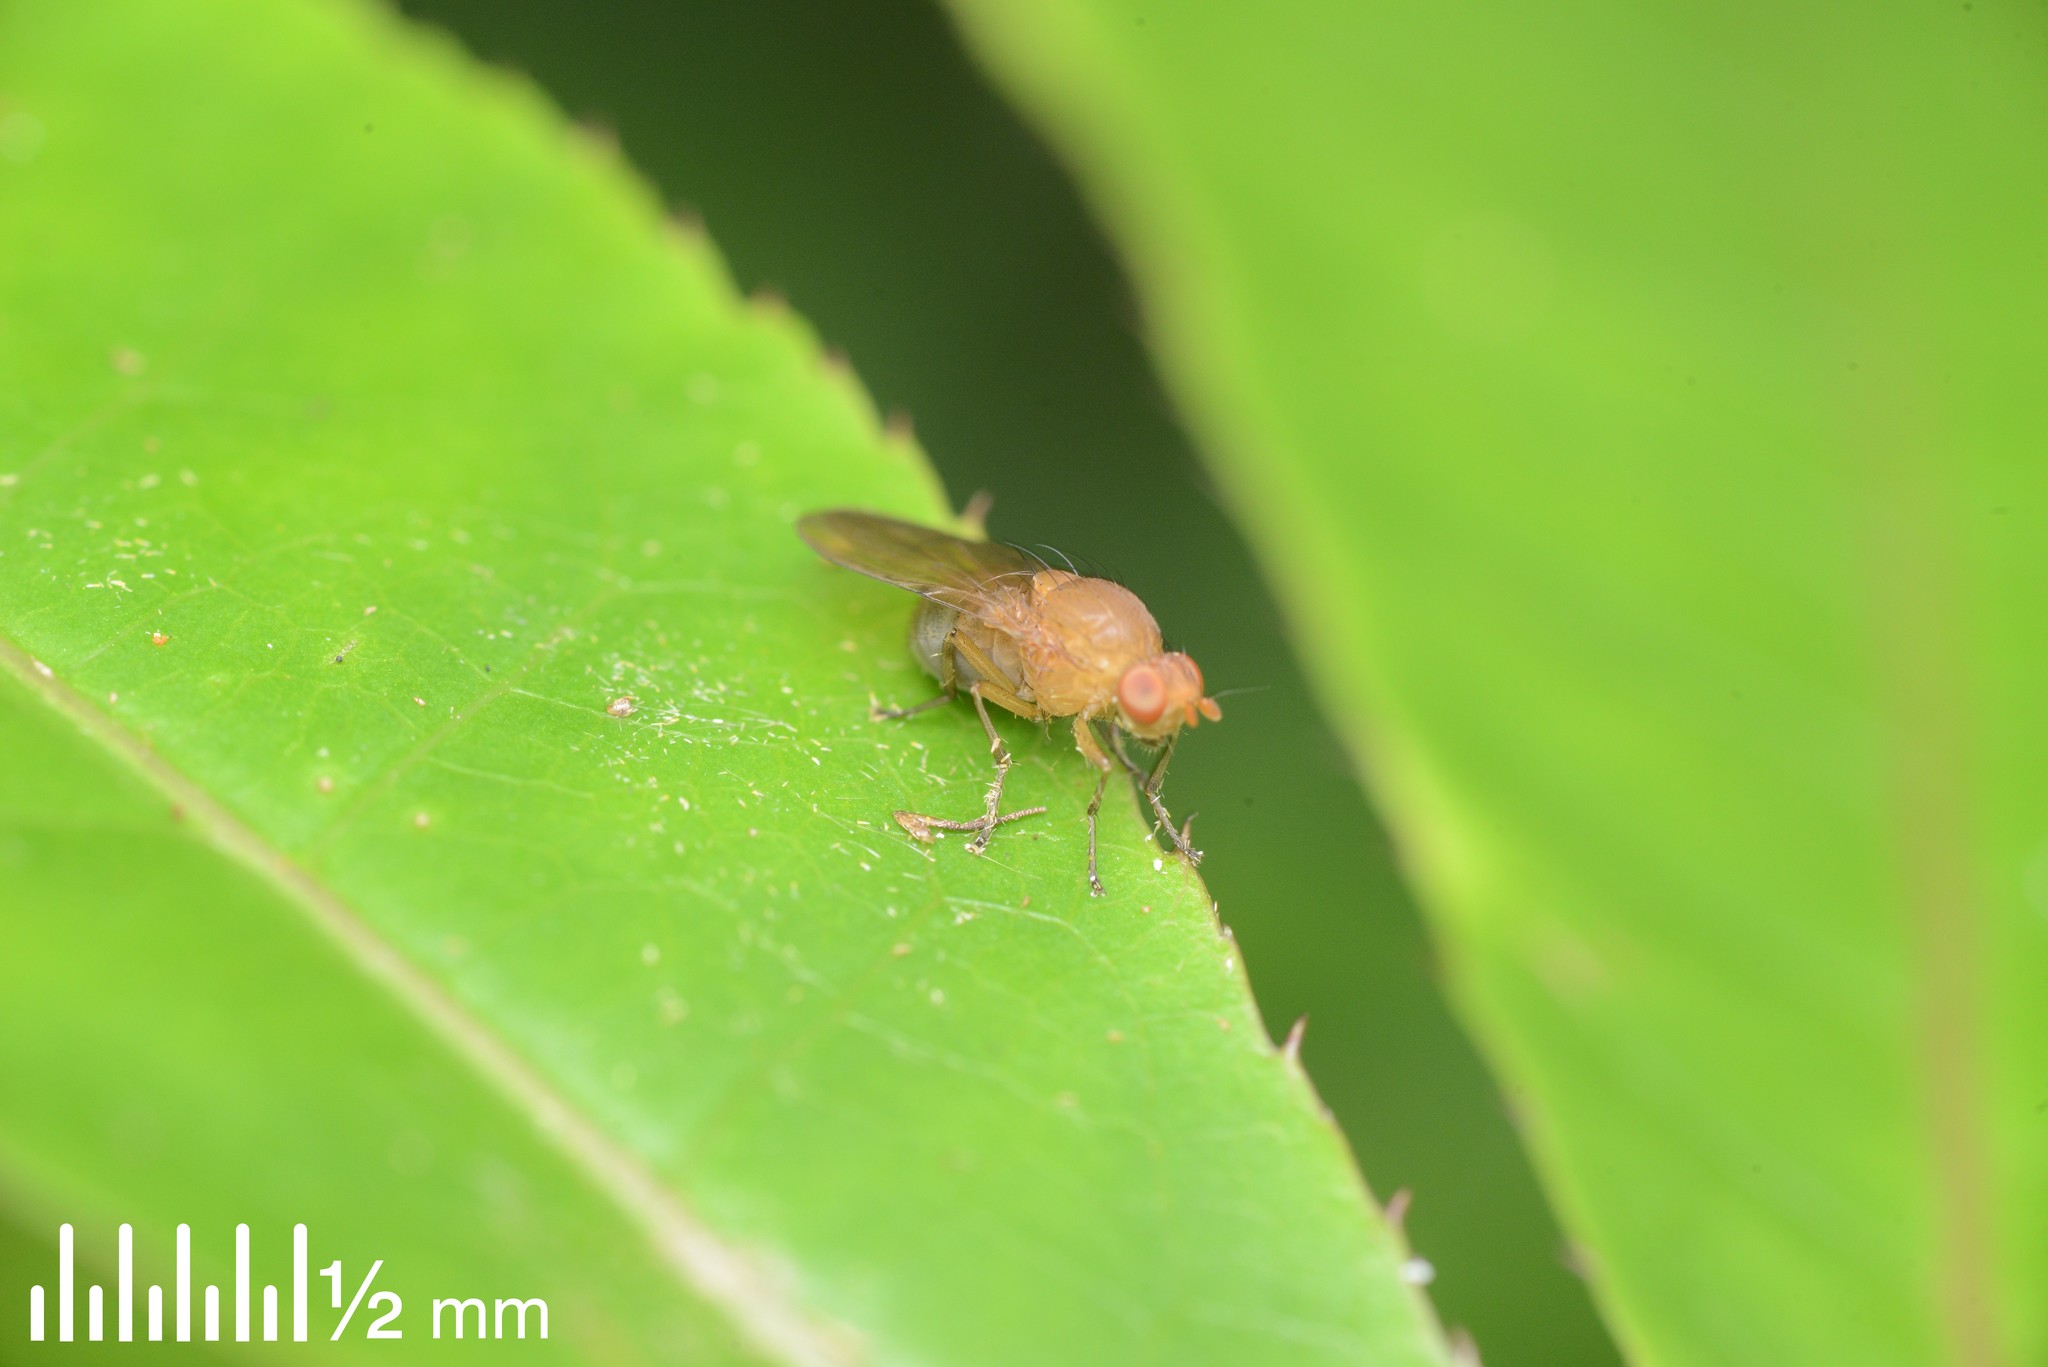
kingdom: Animalia
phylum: Arthropoda
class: Insecta
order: Diptera
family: Lauxaniidae
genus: Sapromyza
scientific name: Sapromyza simillima
